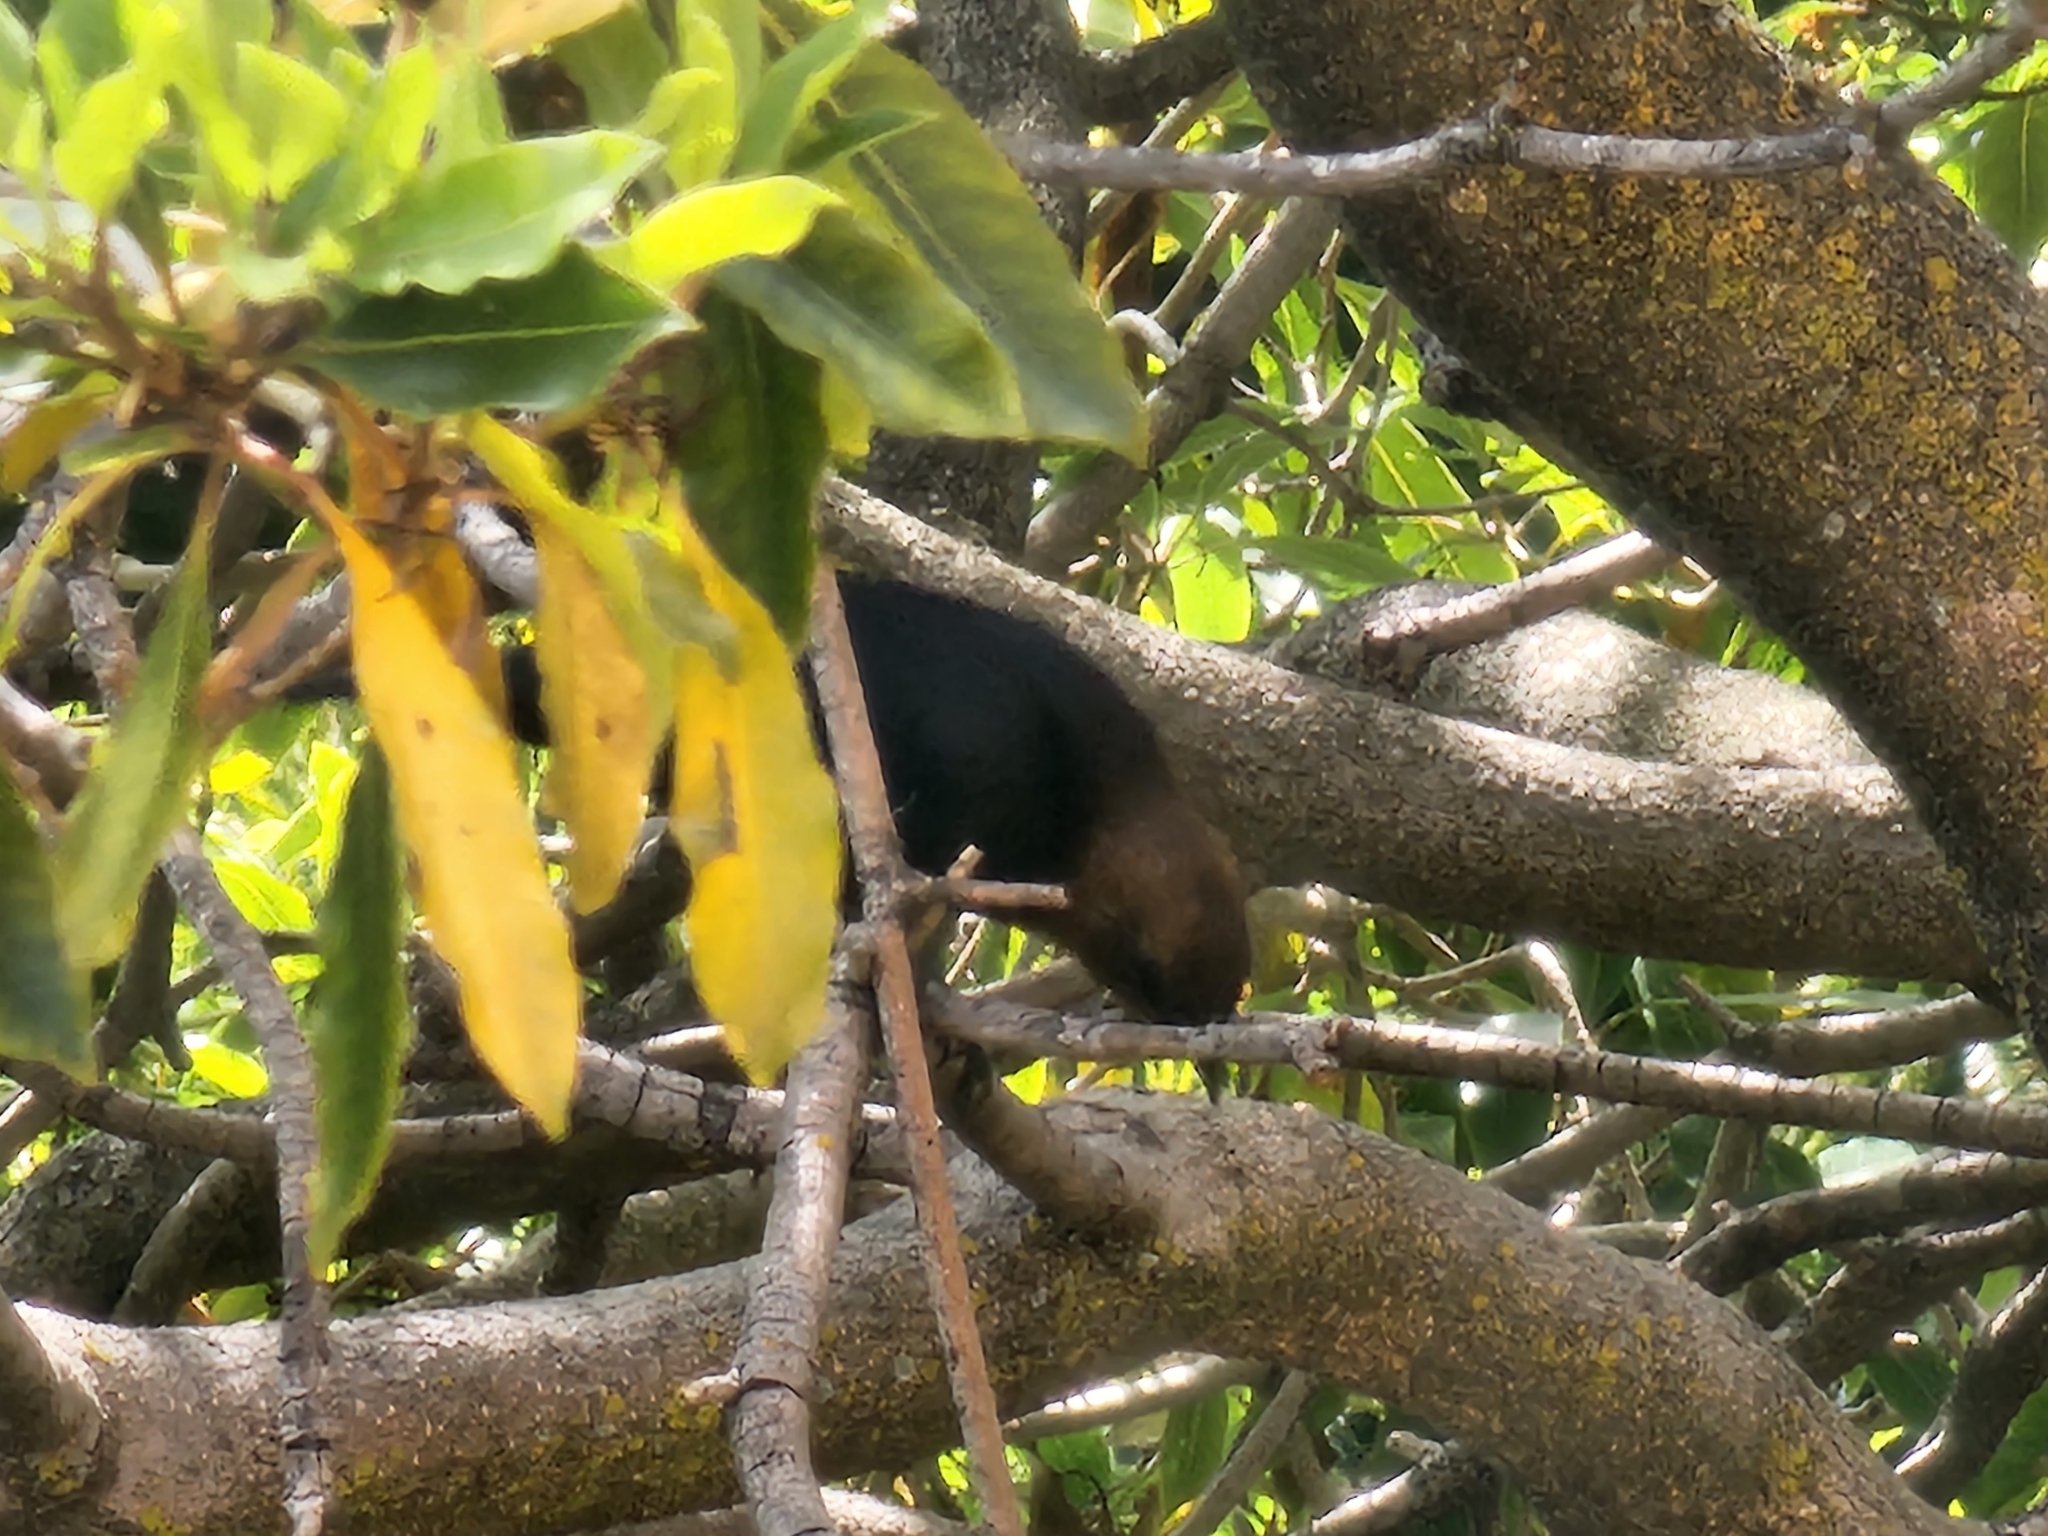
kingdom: Animalia
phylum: Chordata
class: Aves
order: Passeriformes
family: Icteridae
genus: Molothrus
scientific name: Molothrus ater
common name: Brown-headed cowbird
